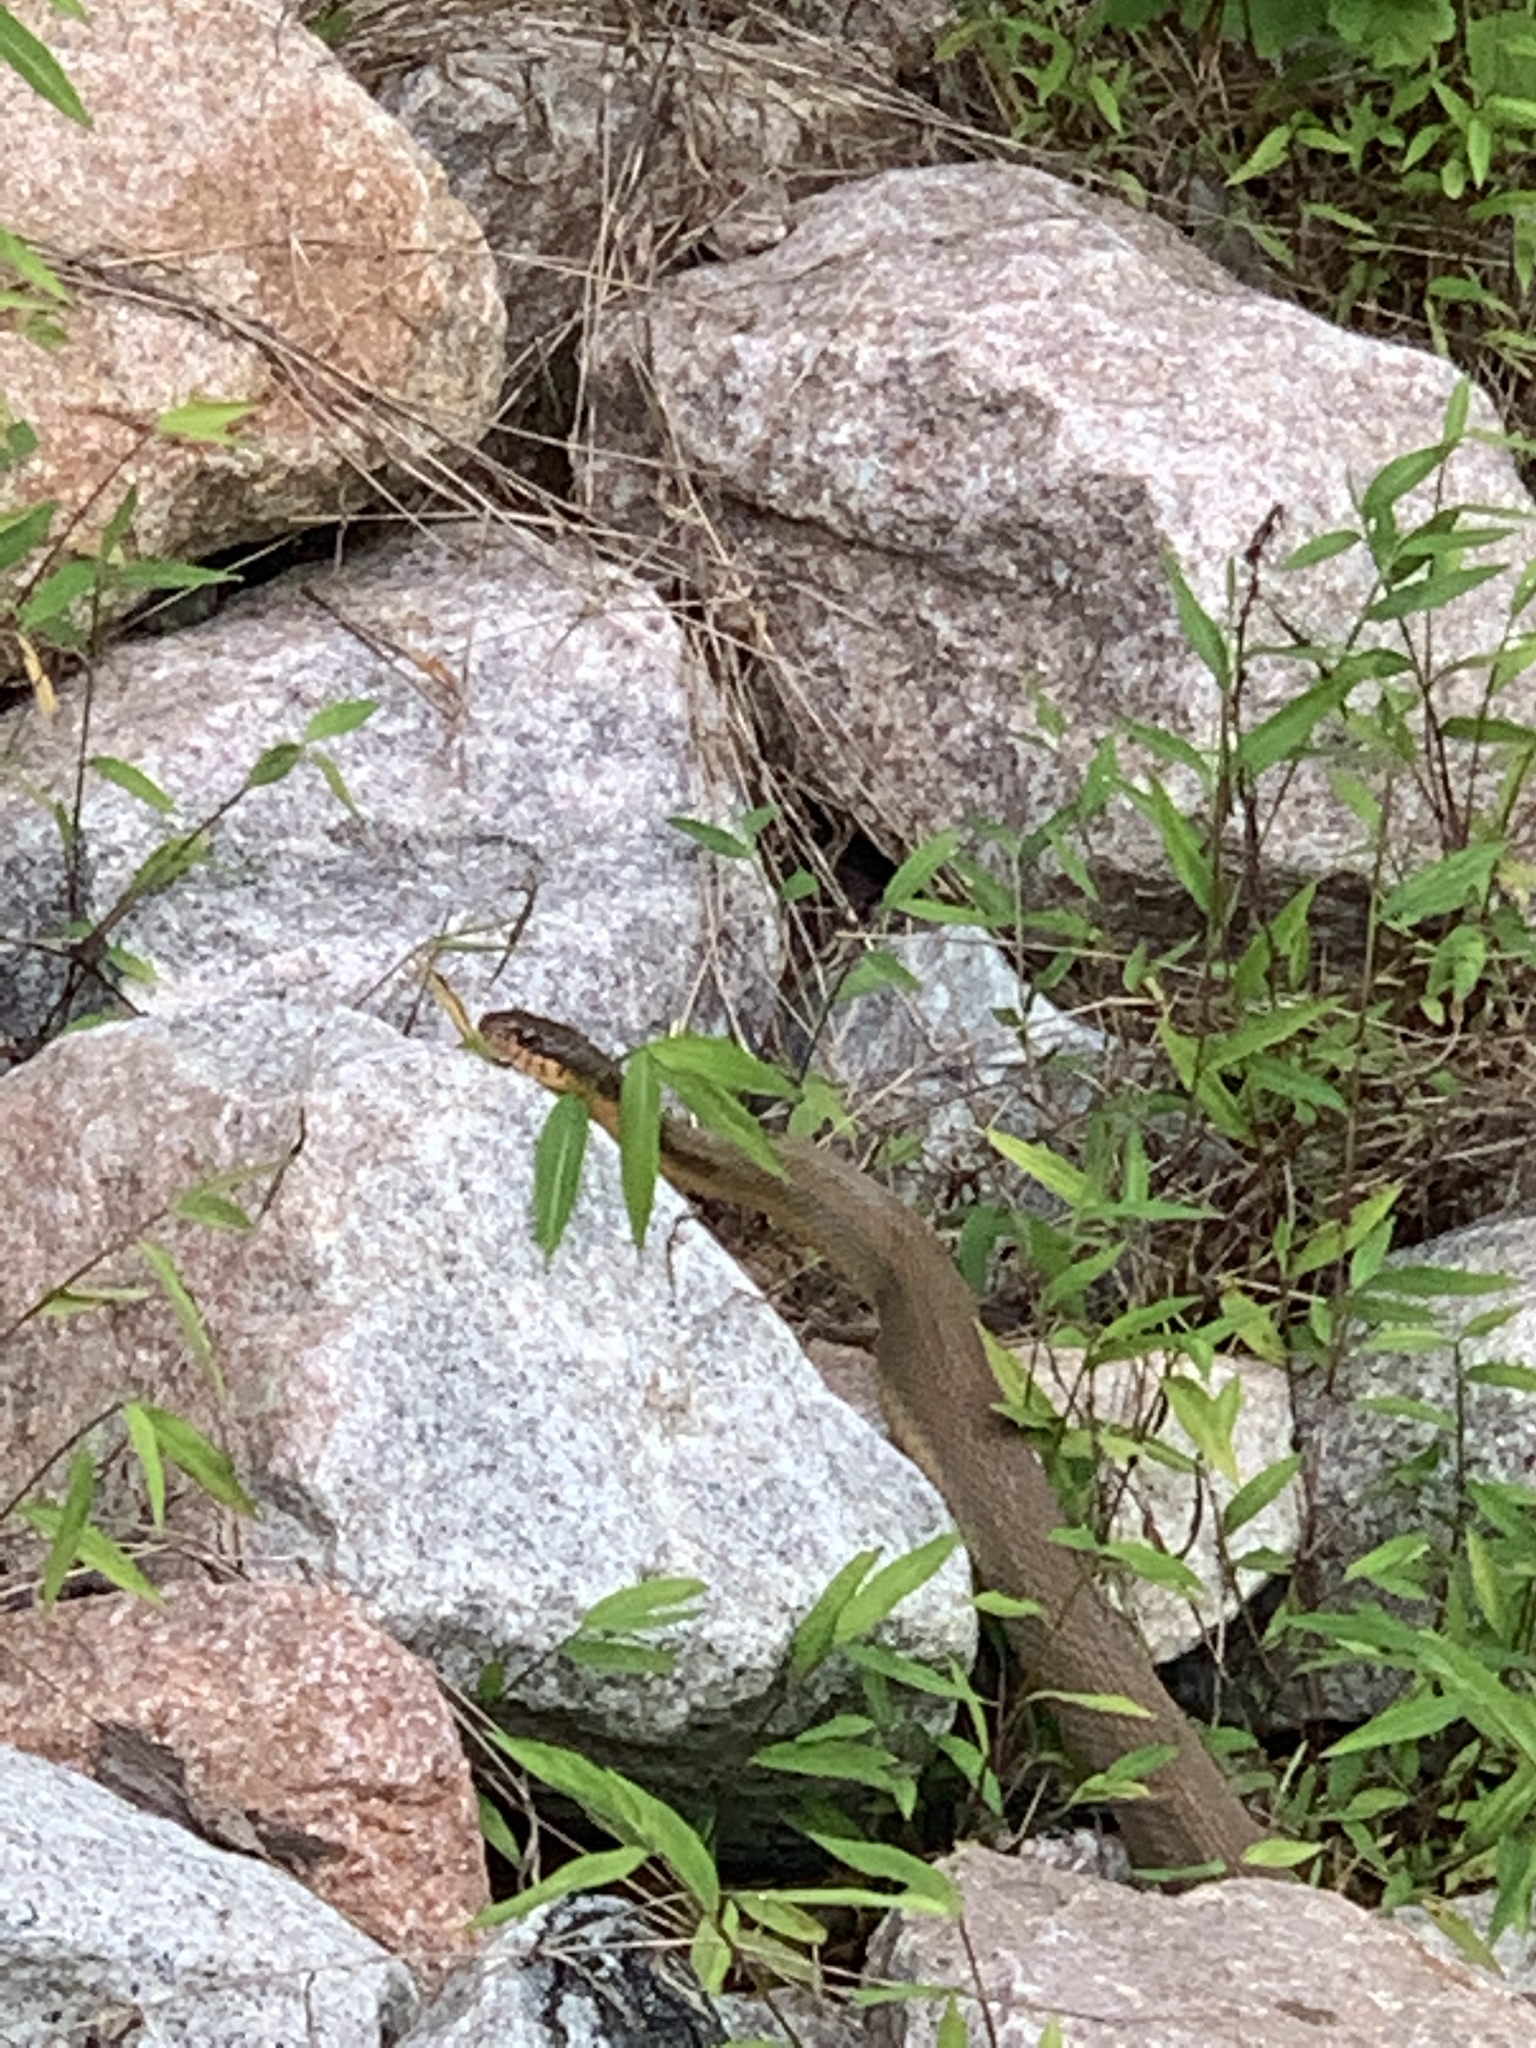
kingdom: Animalia
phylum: Chordata
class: Squamata
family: Colubridae
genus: Nerodia
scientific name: Nerodia erythrogaster
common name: Plainbelly water snake
